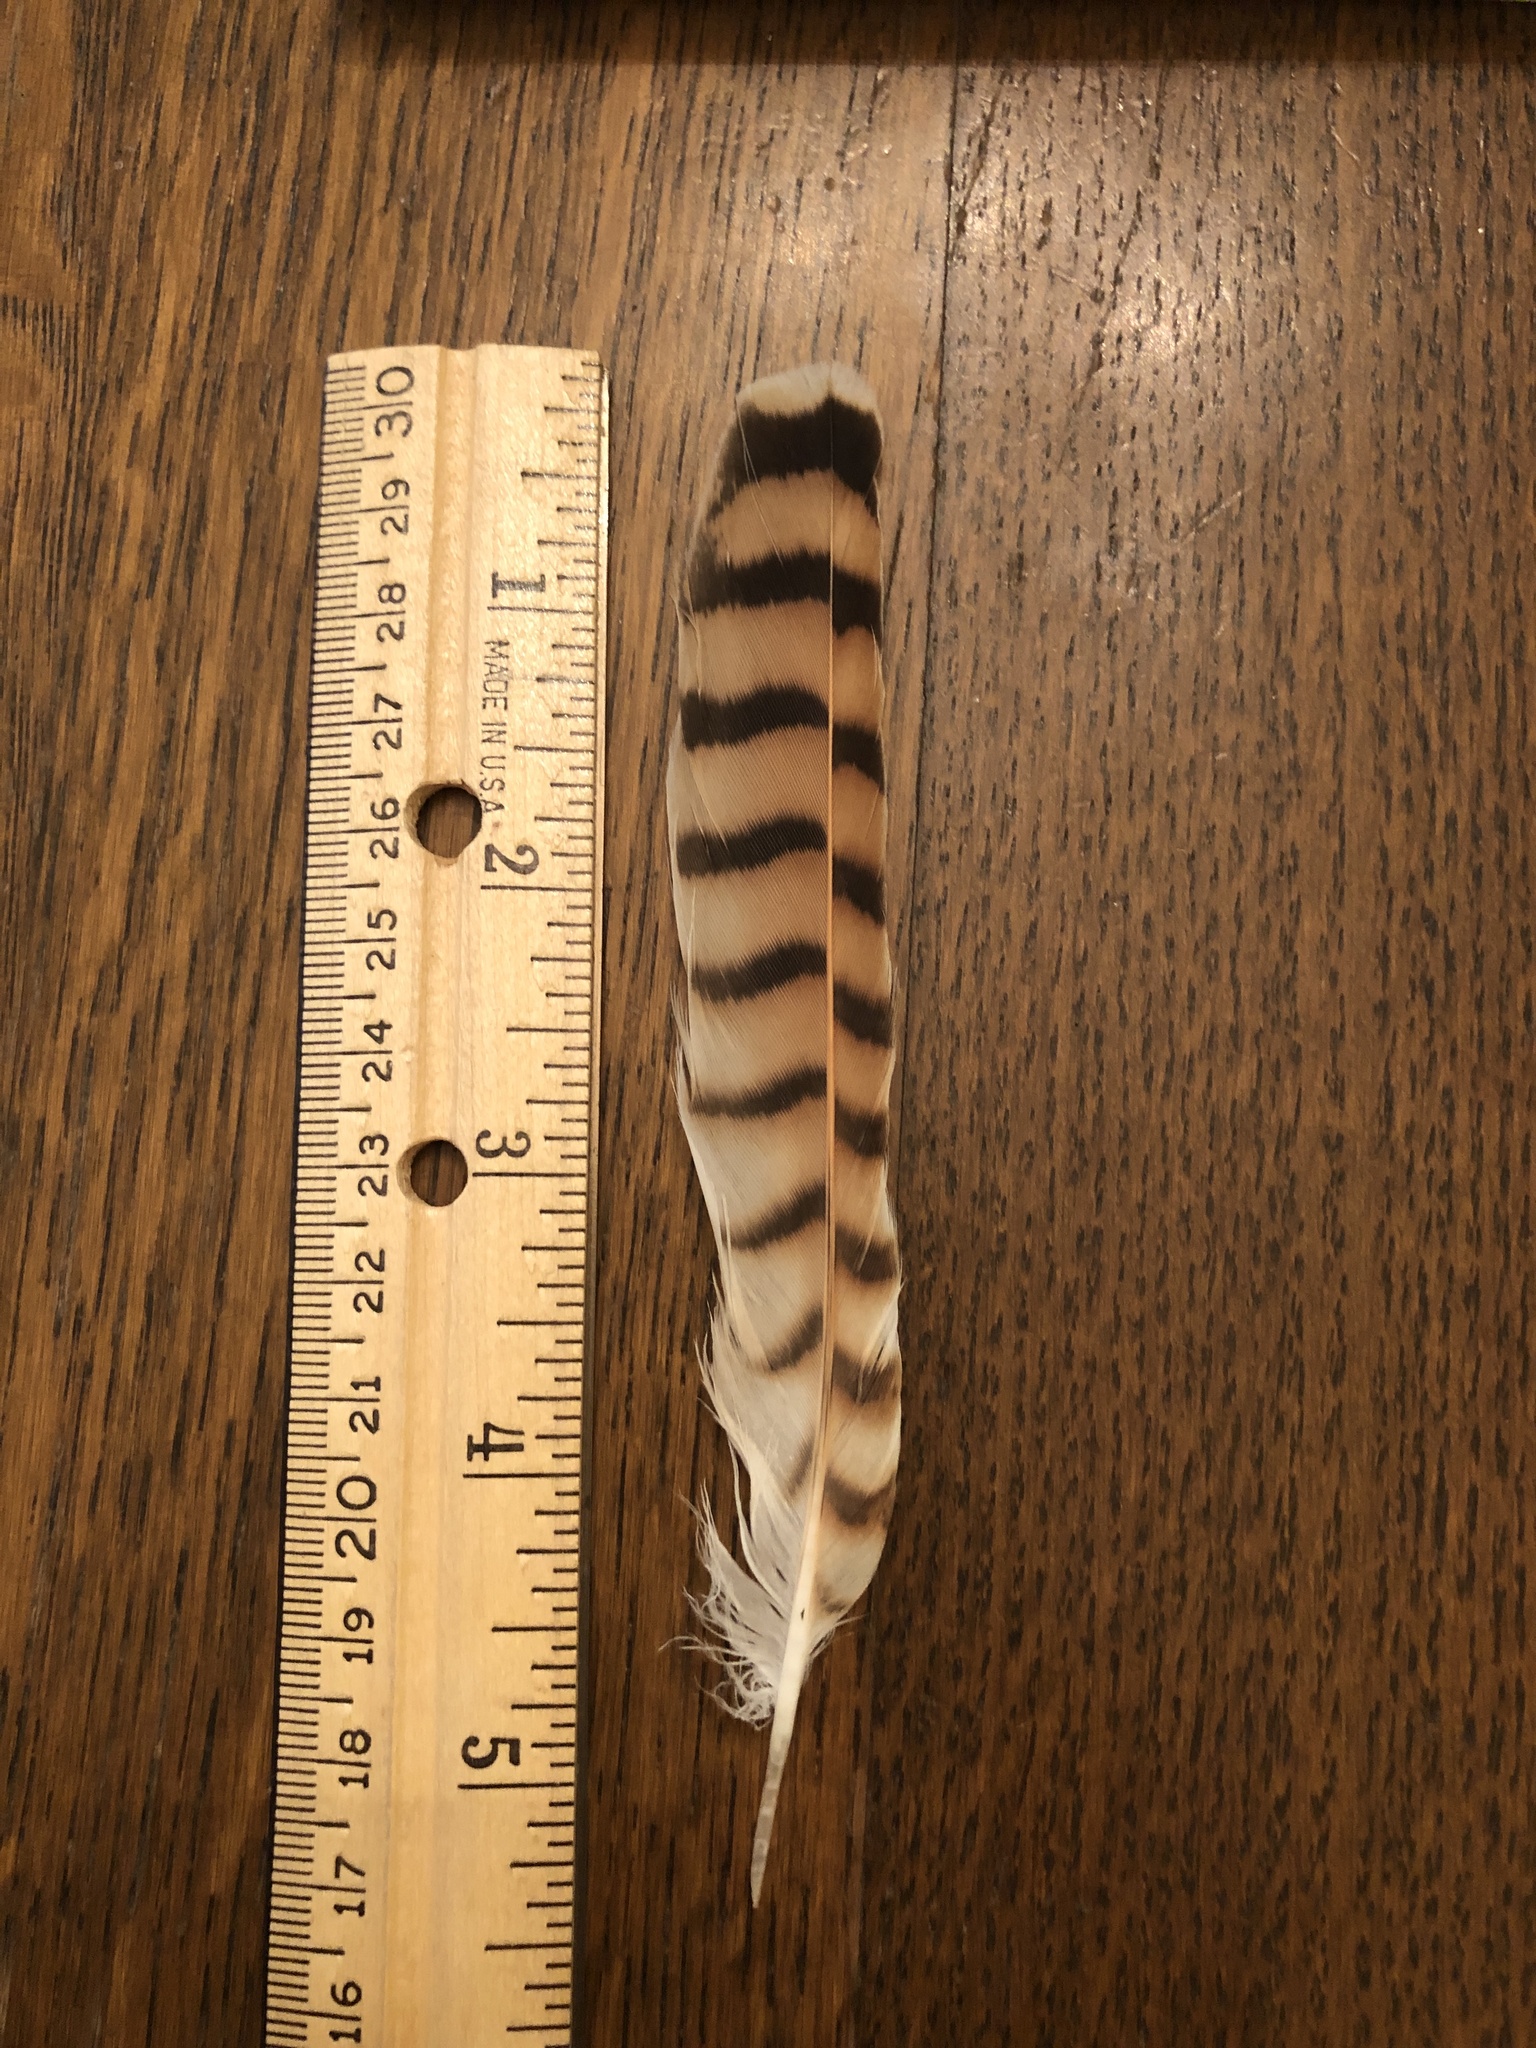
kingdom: Animalia
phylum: Chordata
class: Aves
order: Falconiformes
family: Falconidae
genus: Falco
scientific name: Falco sparverius
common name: American kestrel
